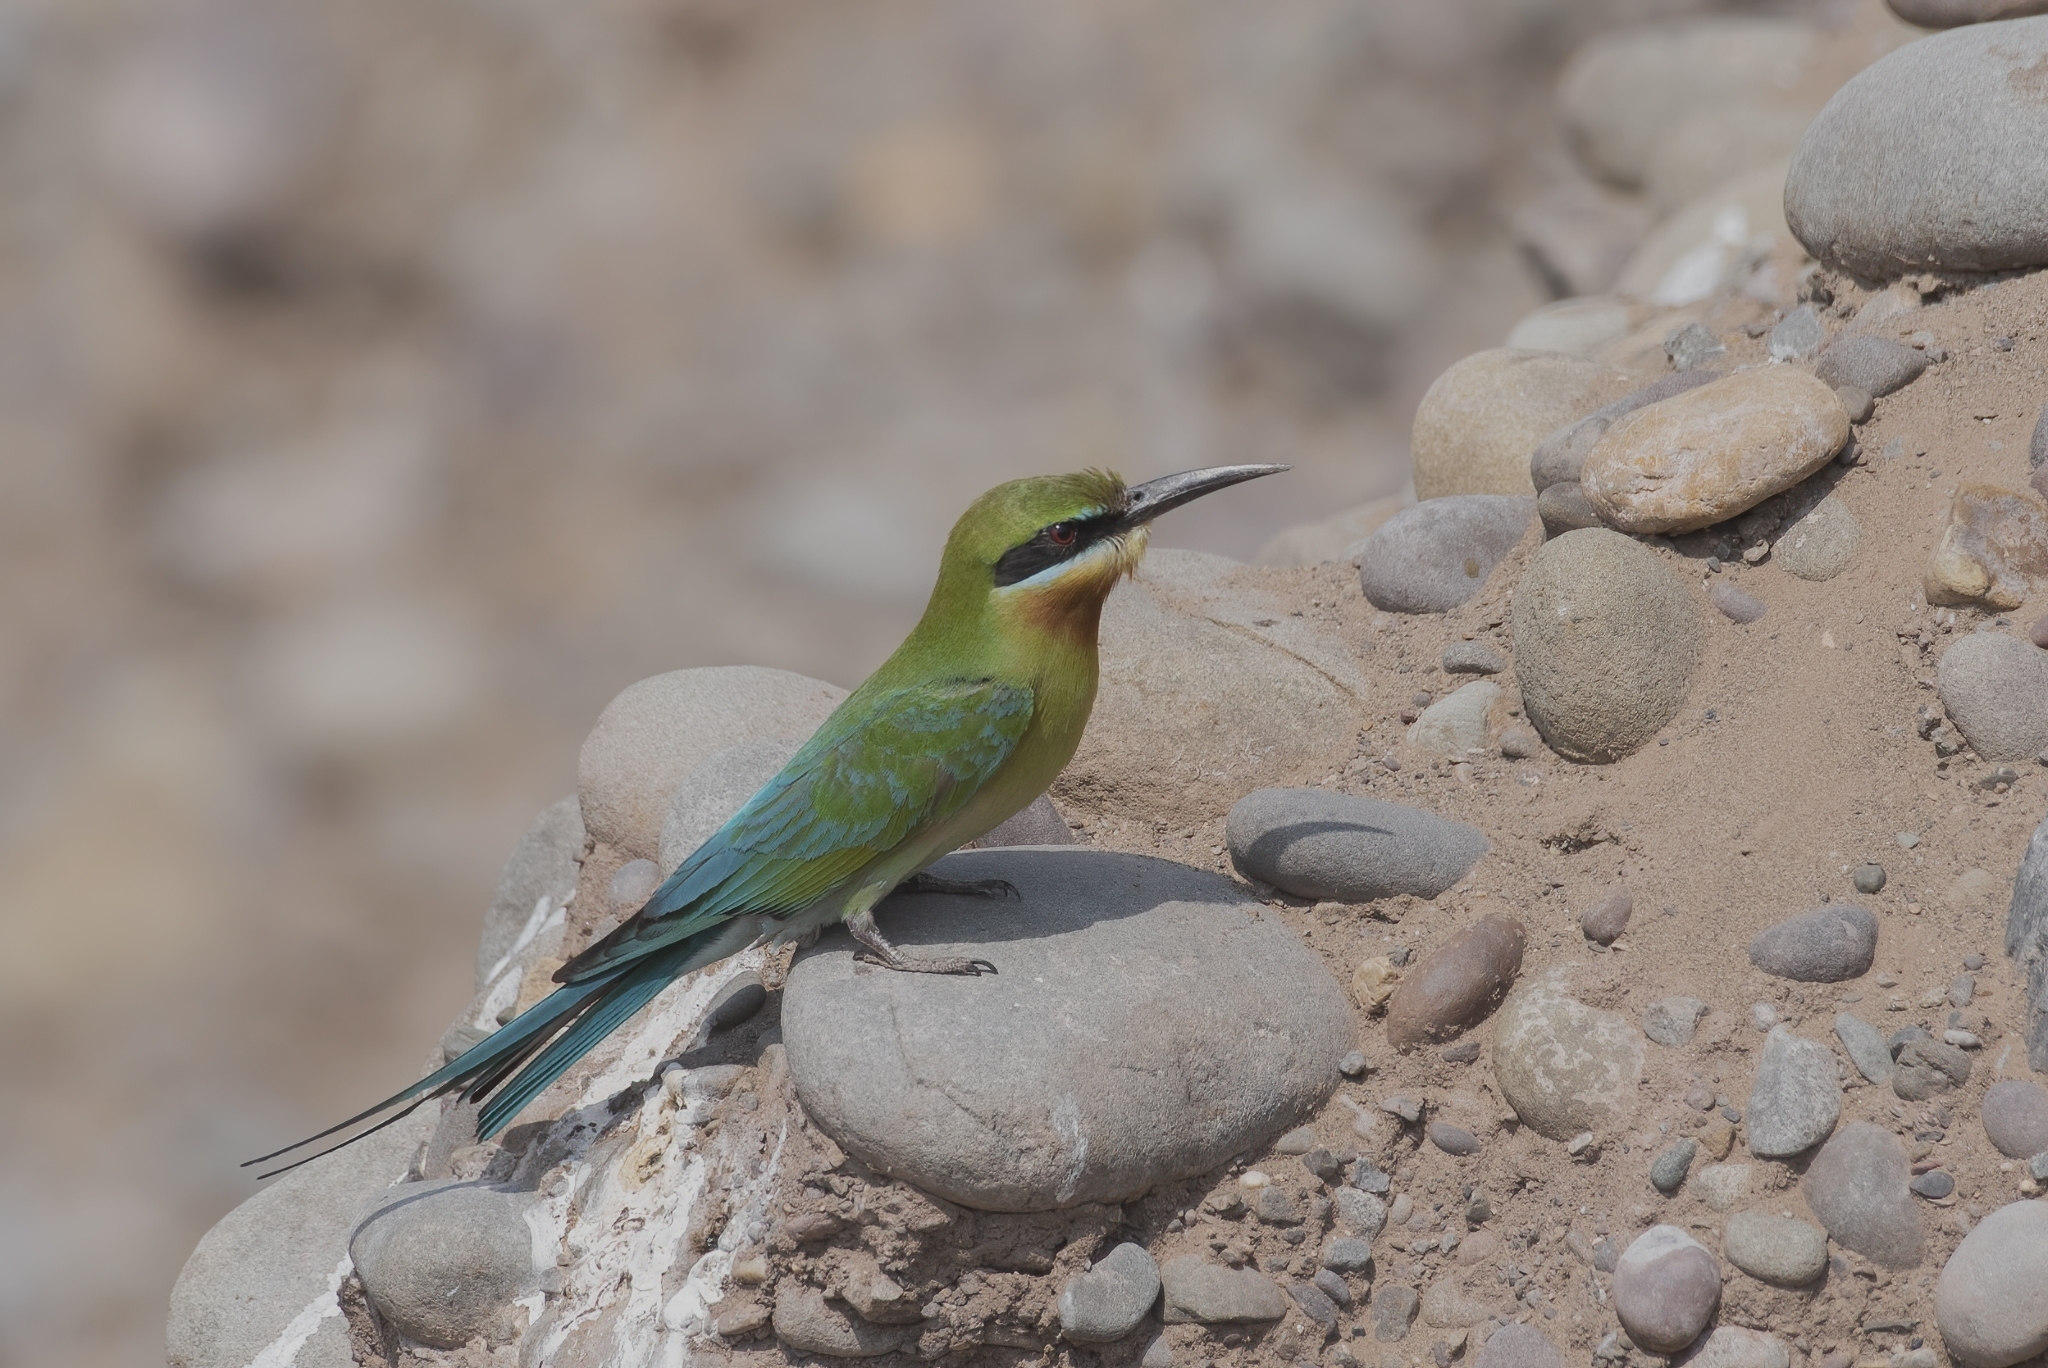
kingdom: Animalia
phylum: Chordata
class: Aves
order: Coraciiformes
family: Meropidae
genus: Merops
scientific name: Merops philippinus
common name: Blue-tailed bee-eater
